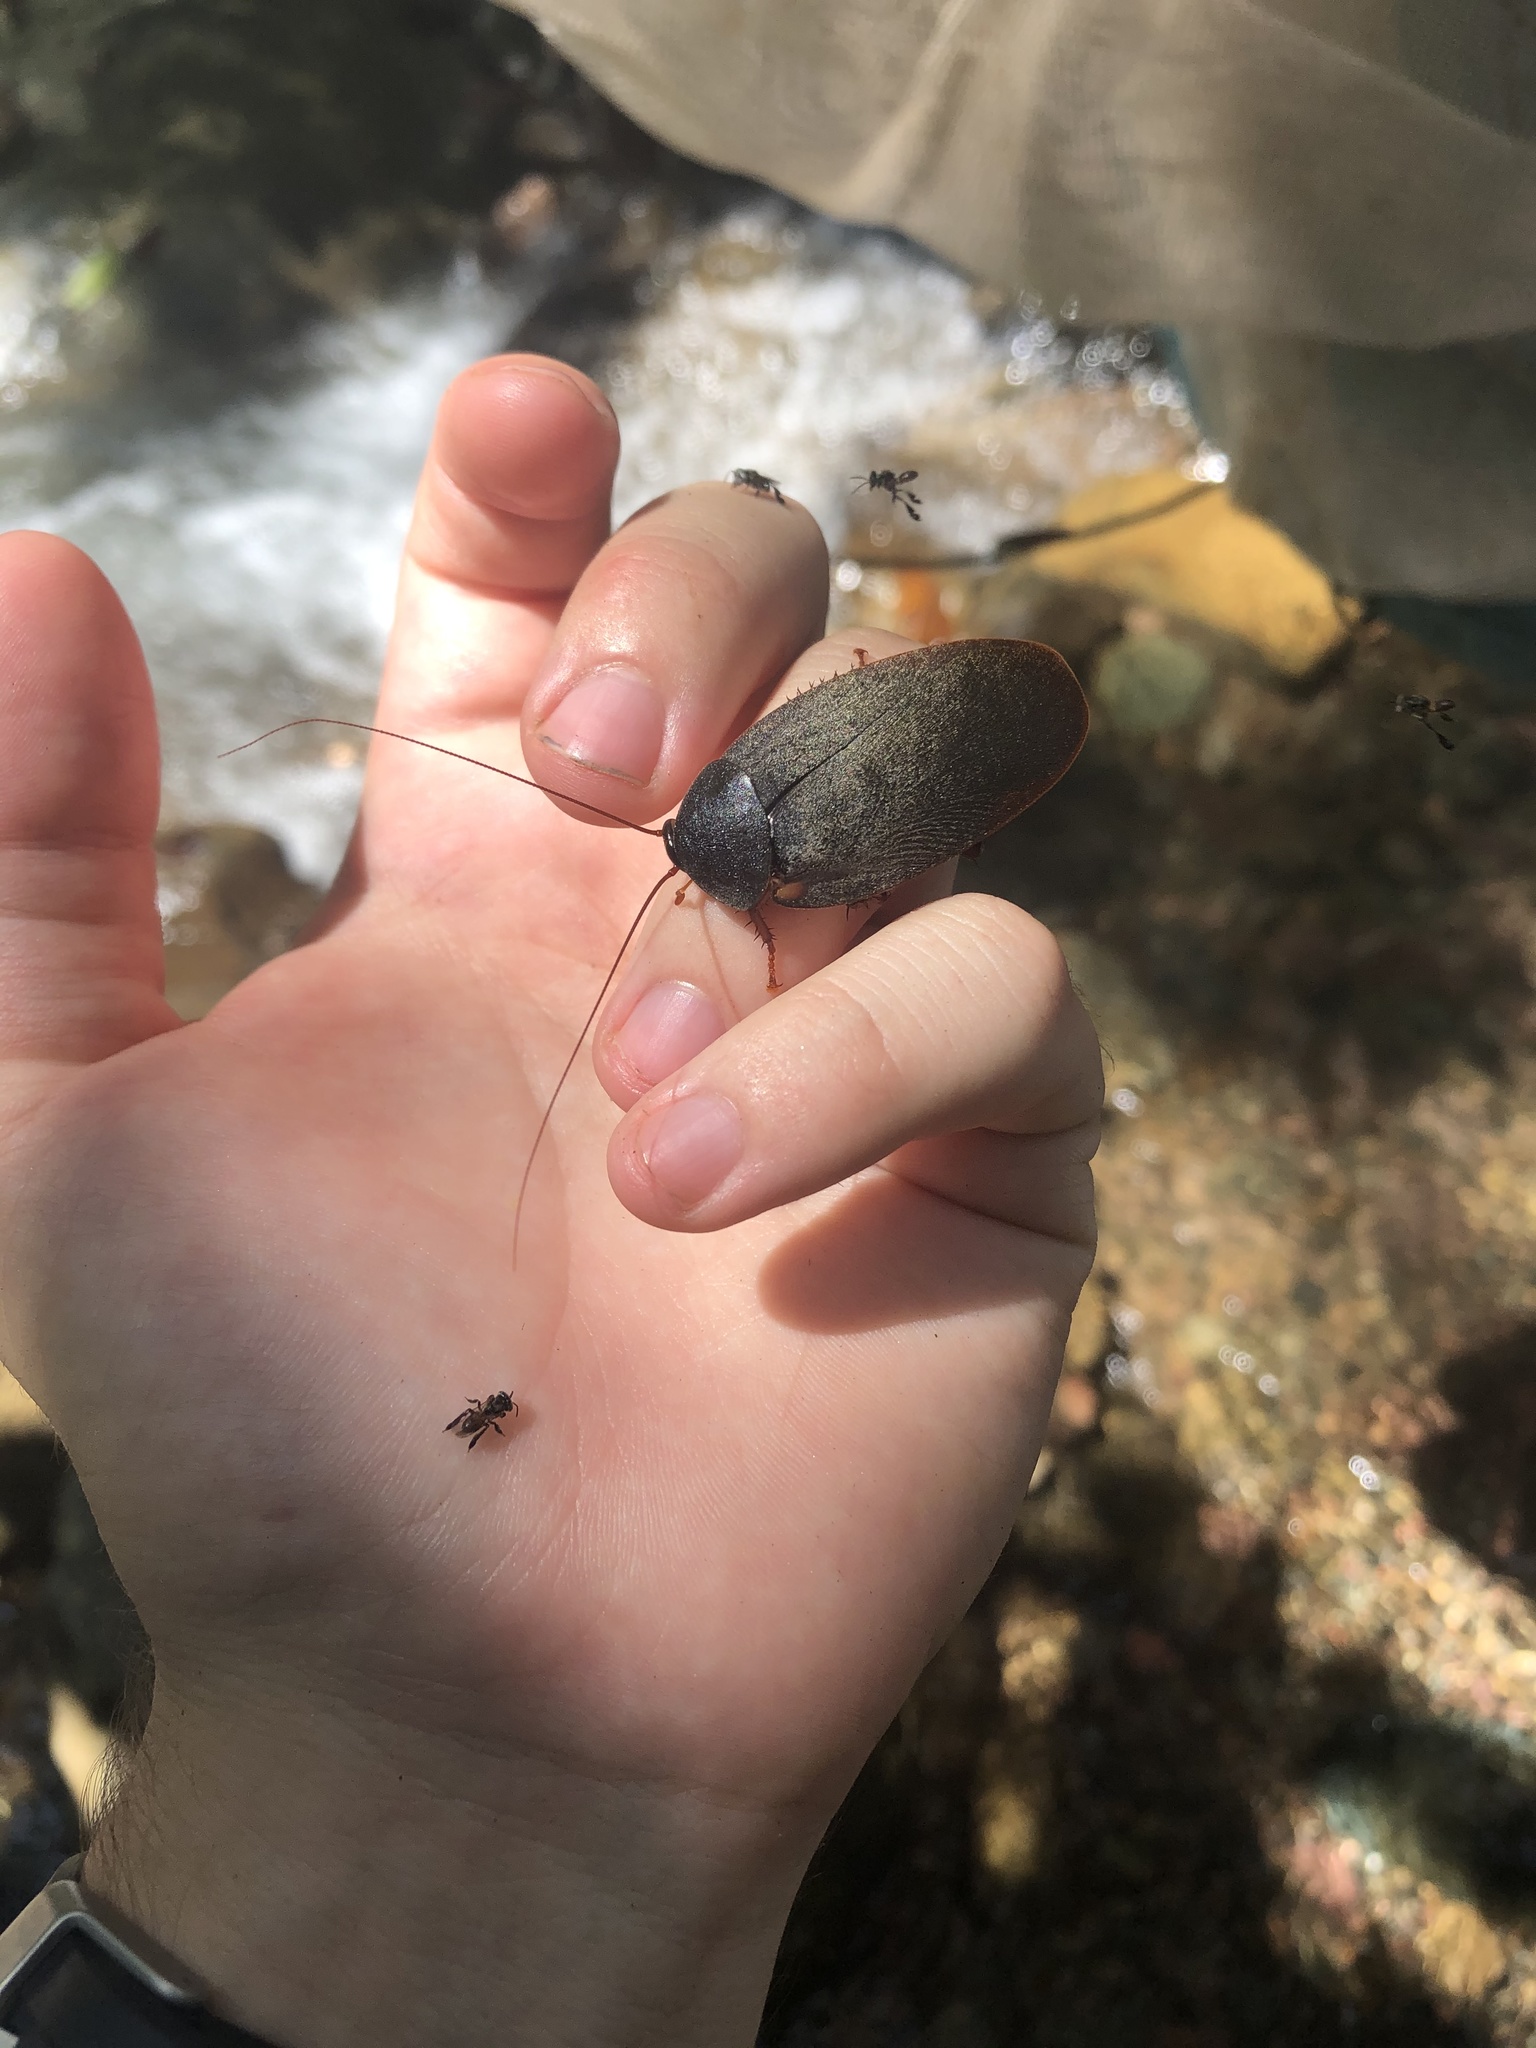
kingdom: Animalia
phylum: Arthropoda
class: Insecta
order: Blattodea
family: Ectobiidae
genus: Nyctibora
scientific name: Nyctibora humeralis
